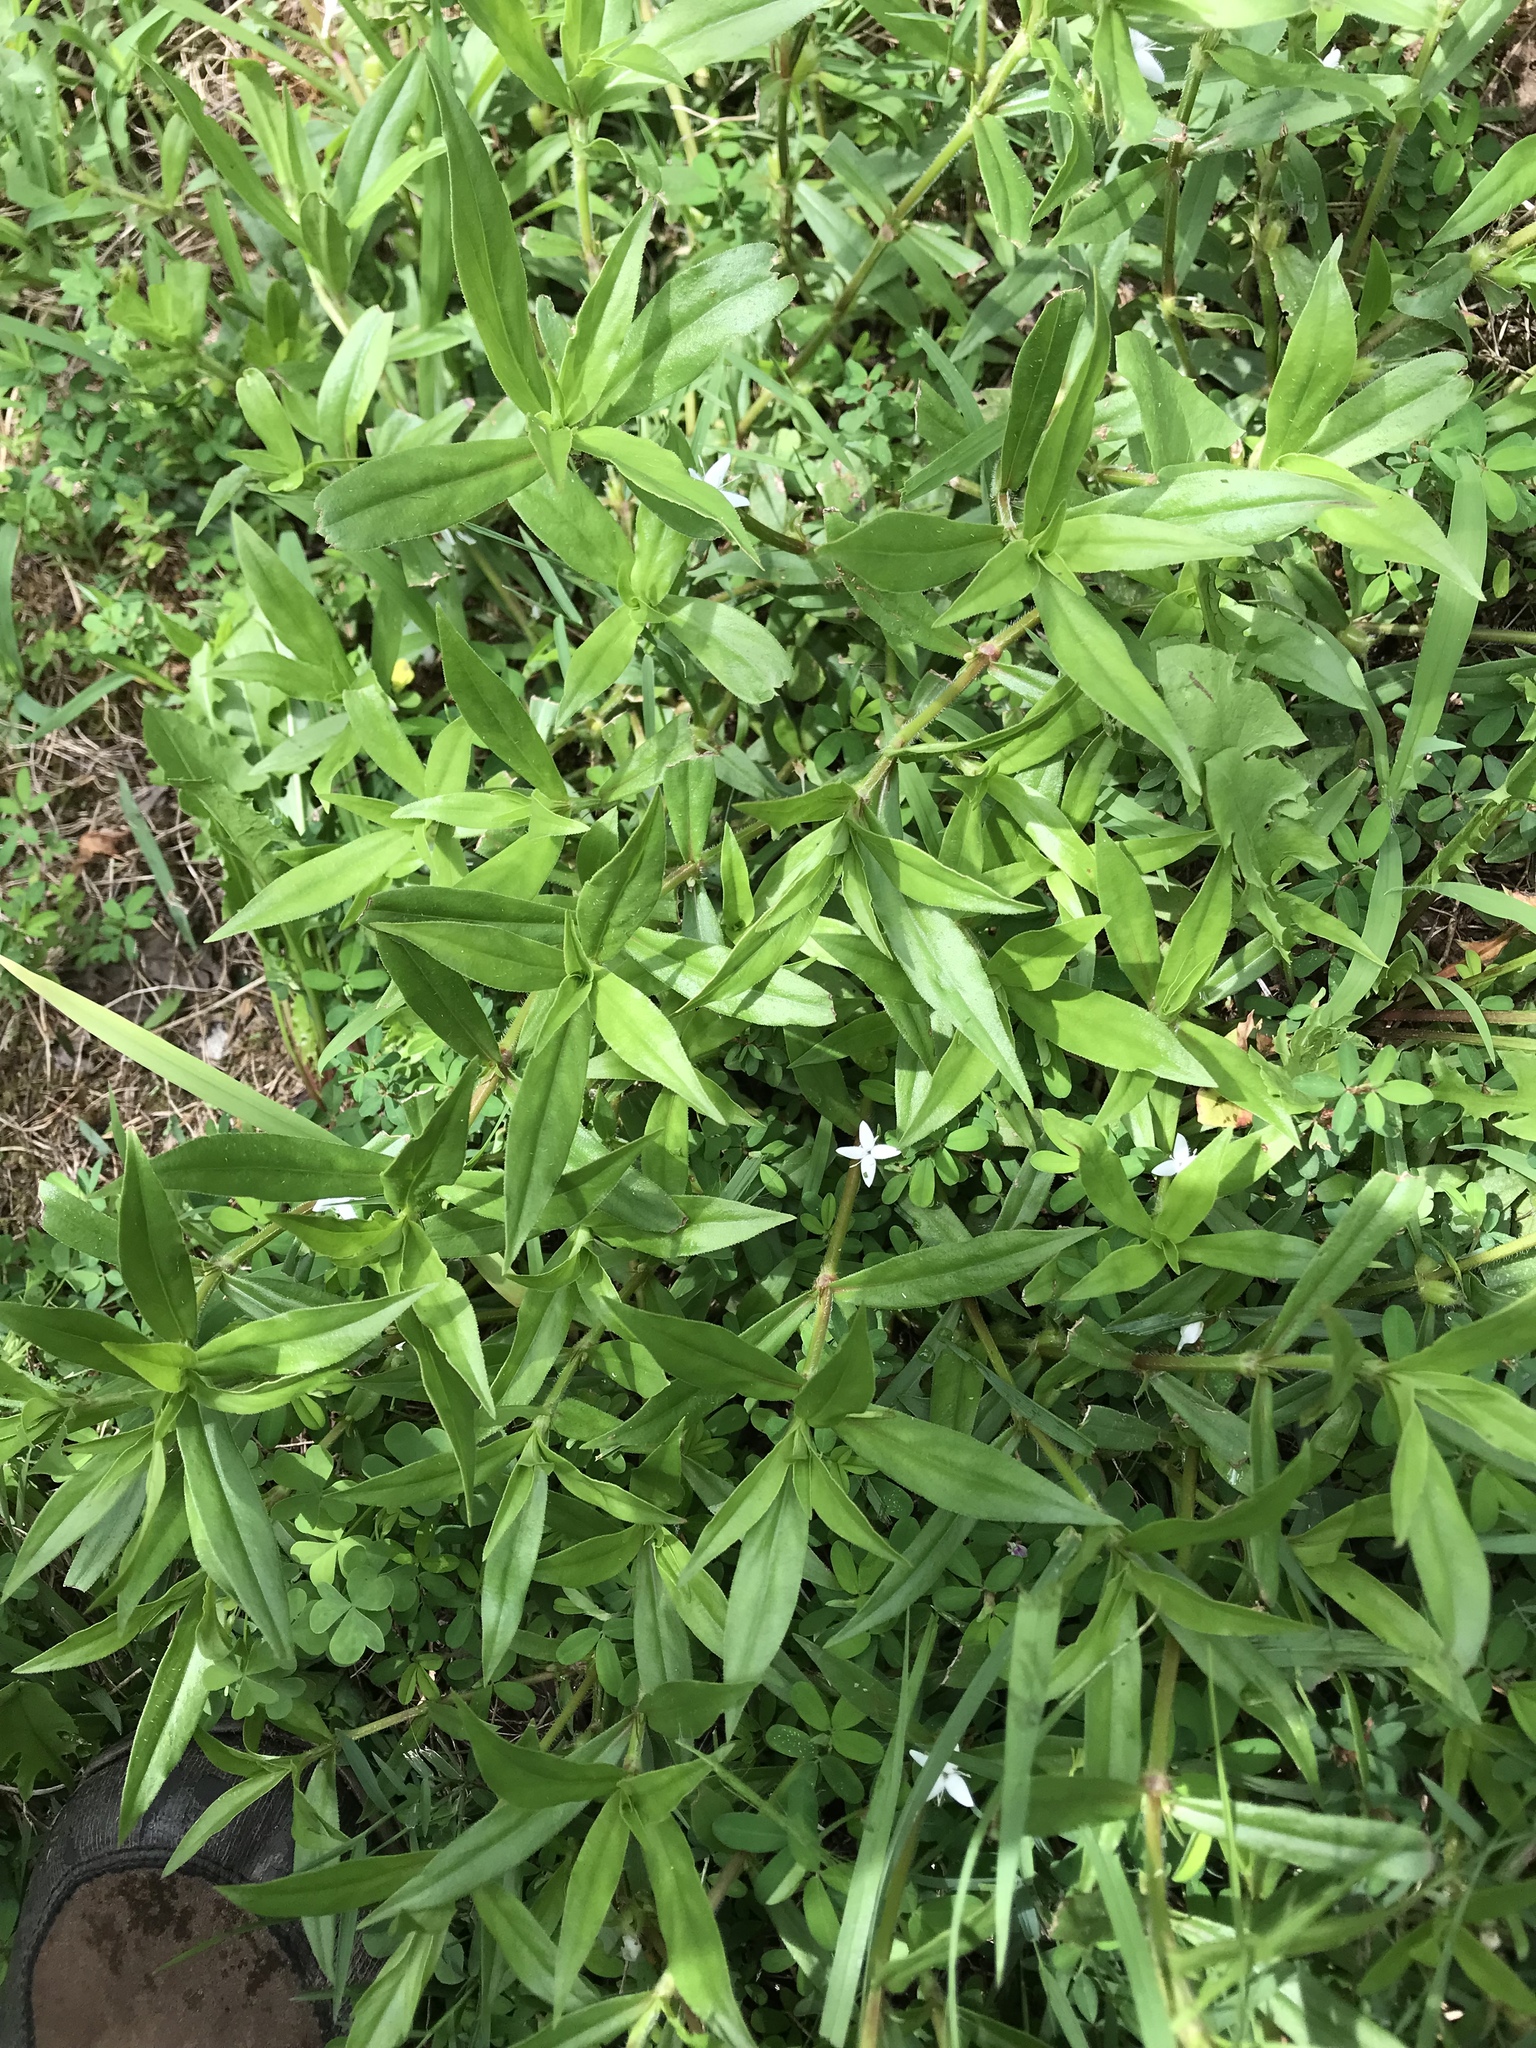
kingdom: Plantae
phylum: Tracheophyta
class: Magnoliopsida
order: Gentianales
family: Rubiaceae
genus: Diodia
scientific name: Diodia virginiana
